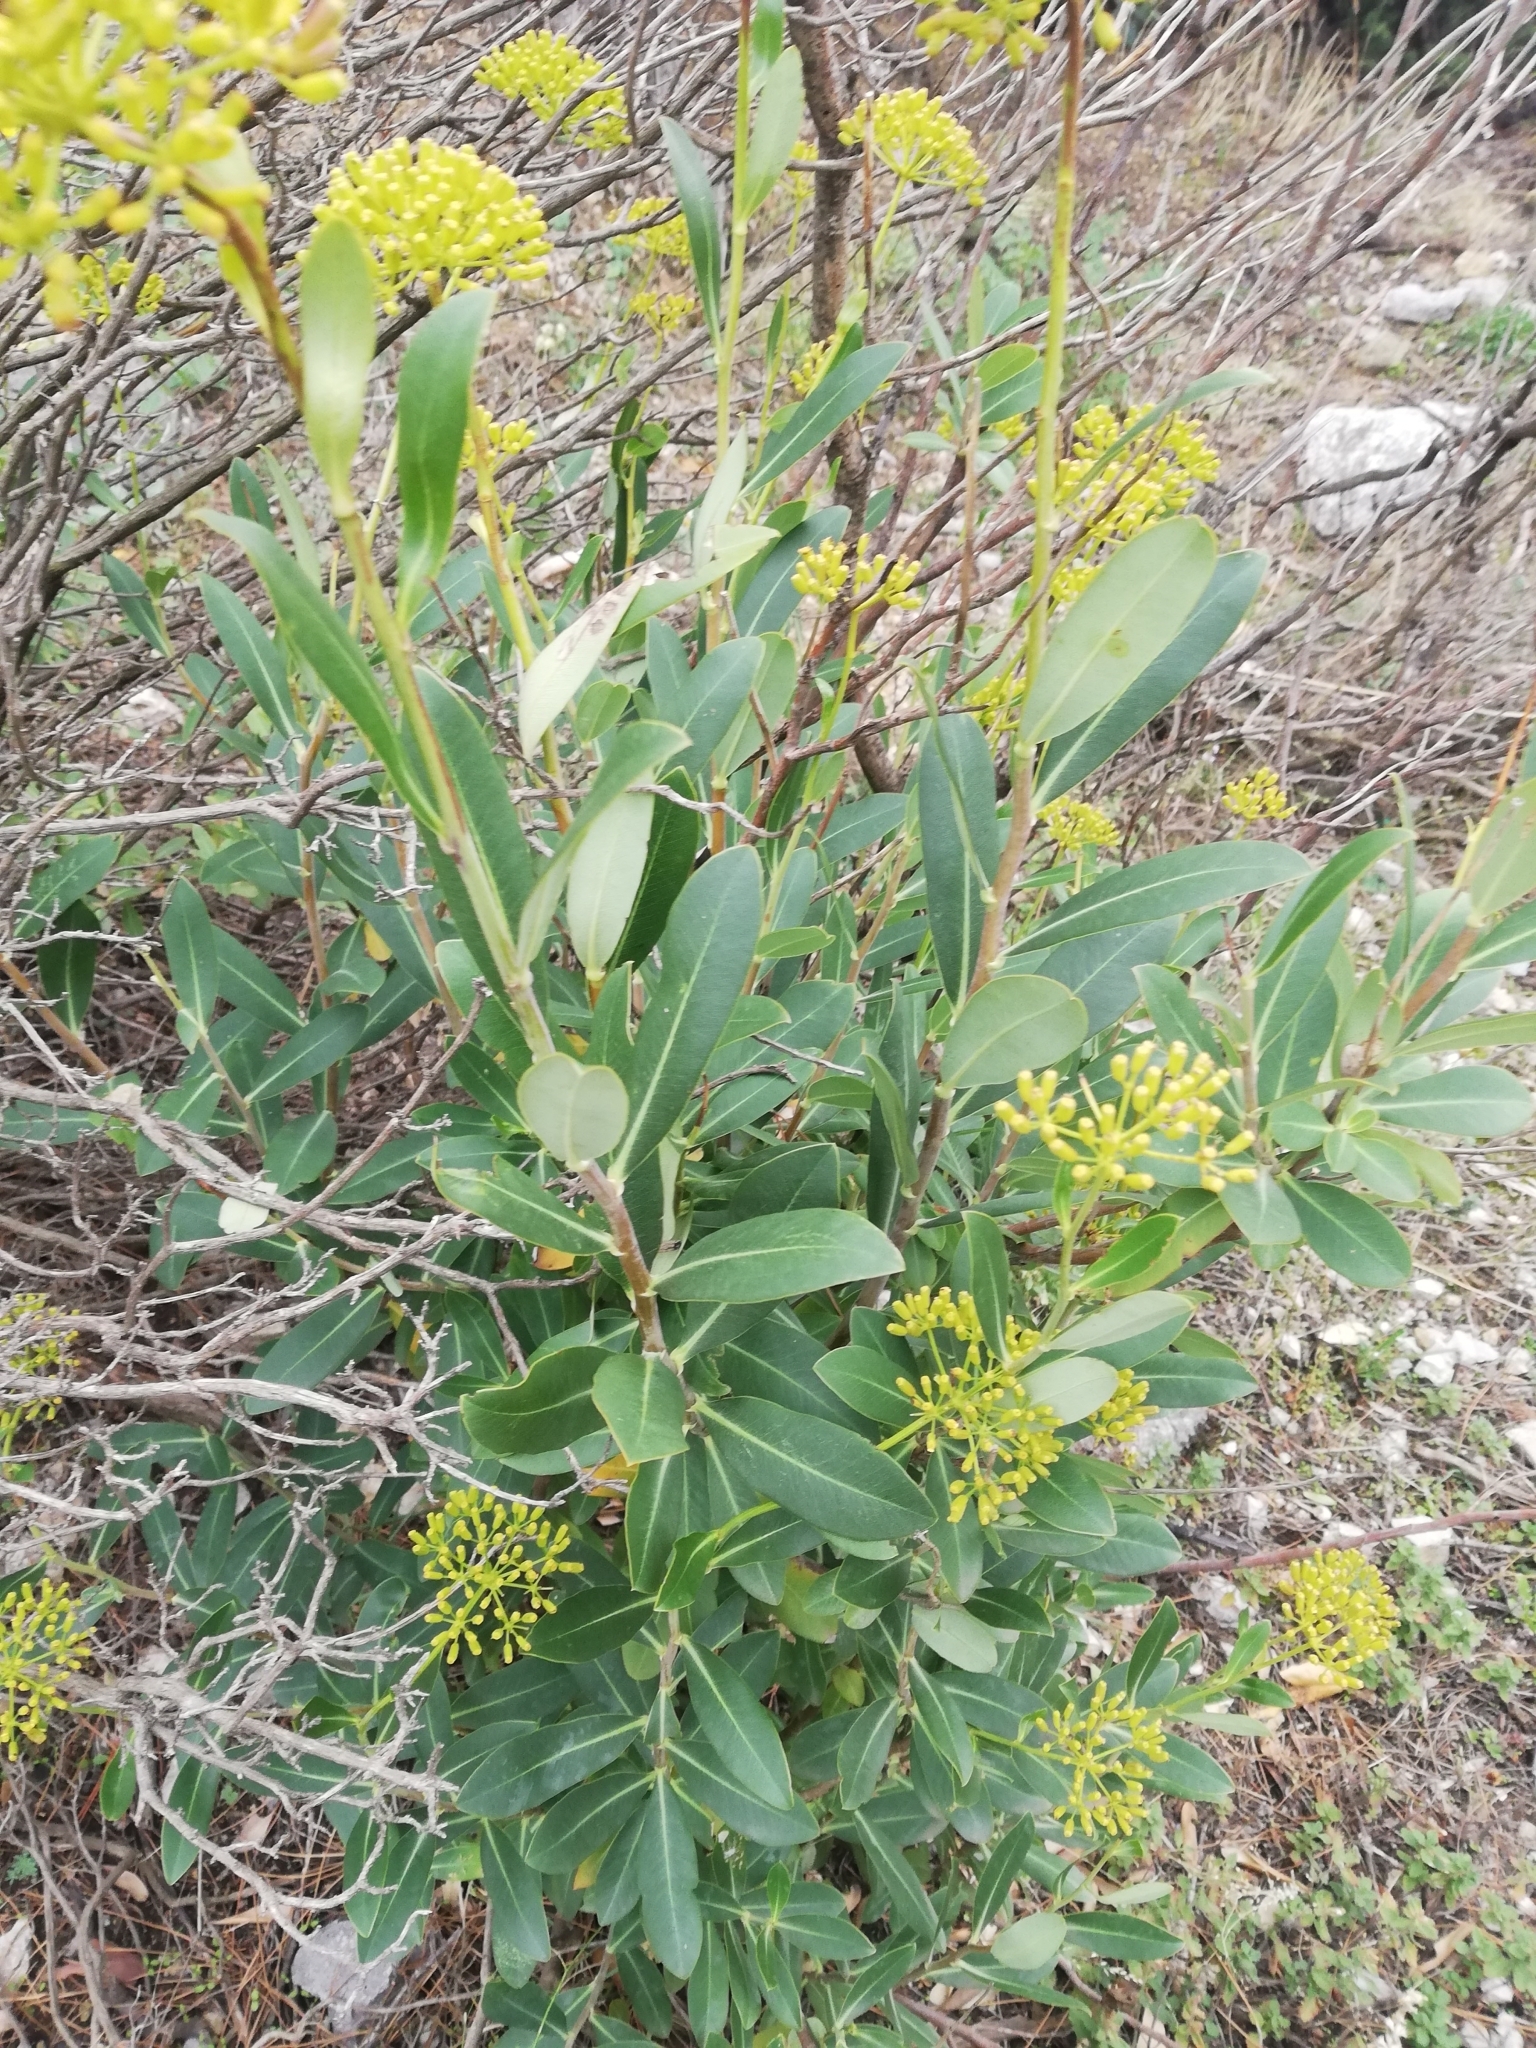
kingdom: Plantae
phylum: Tracheophyta
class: Magnoliopsida
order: Apiales
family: Apiaceae
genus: Bupleurum
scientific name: Bupleurum fruticosum
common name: Shrubby hare's-ear
